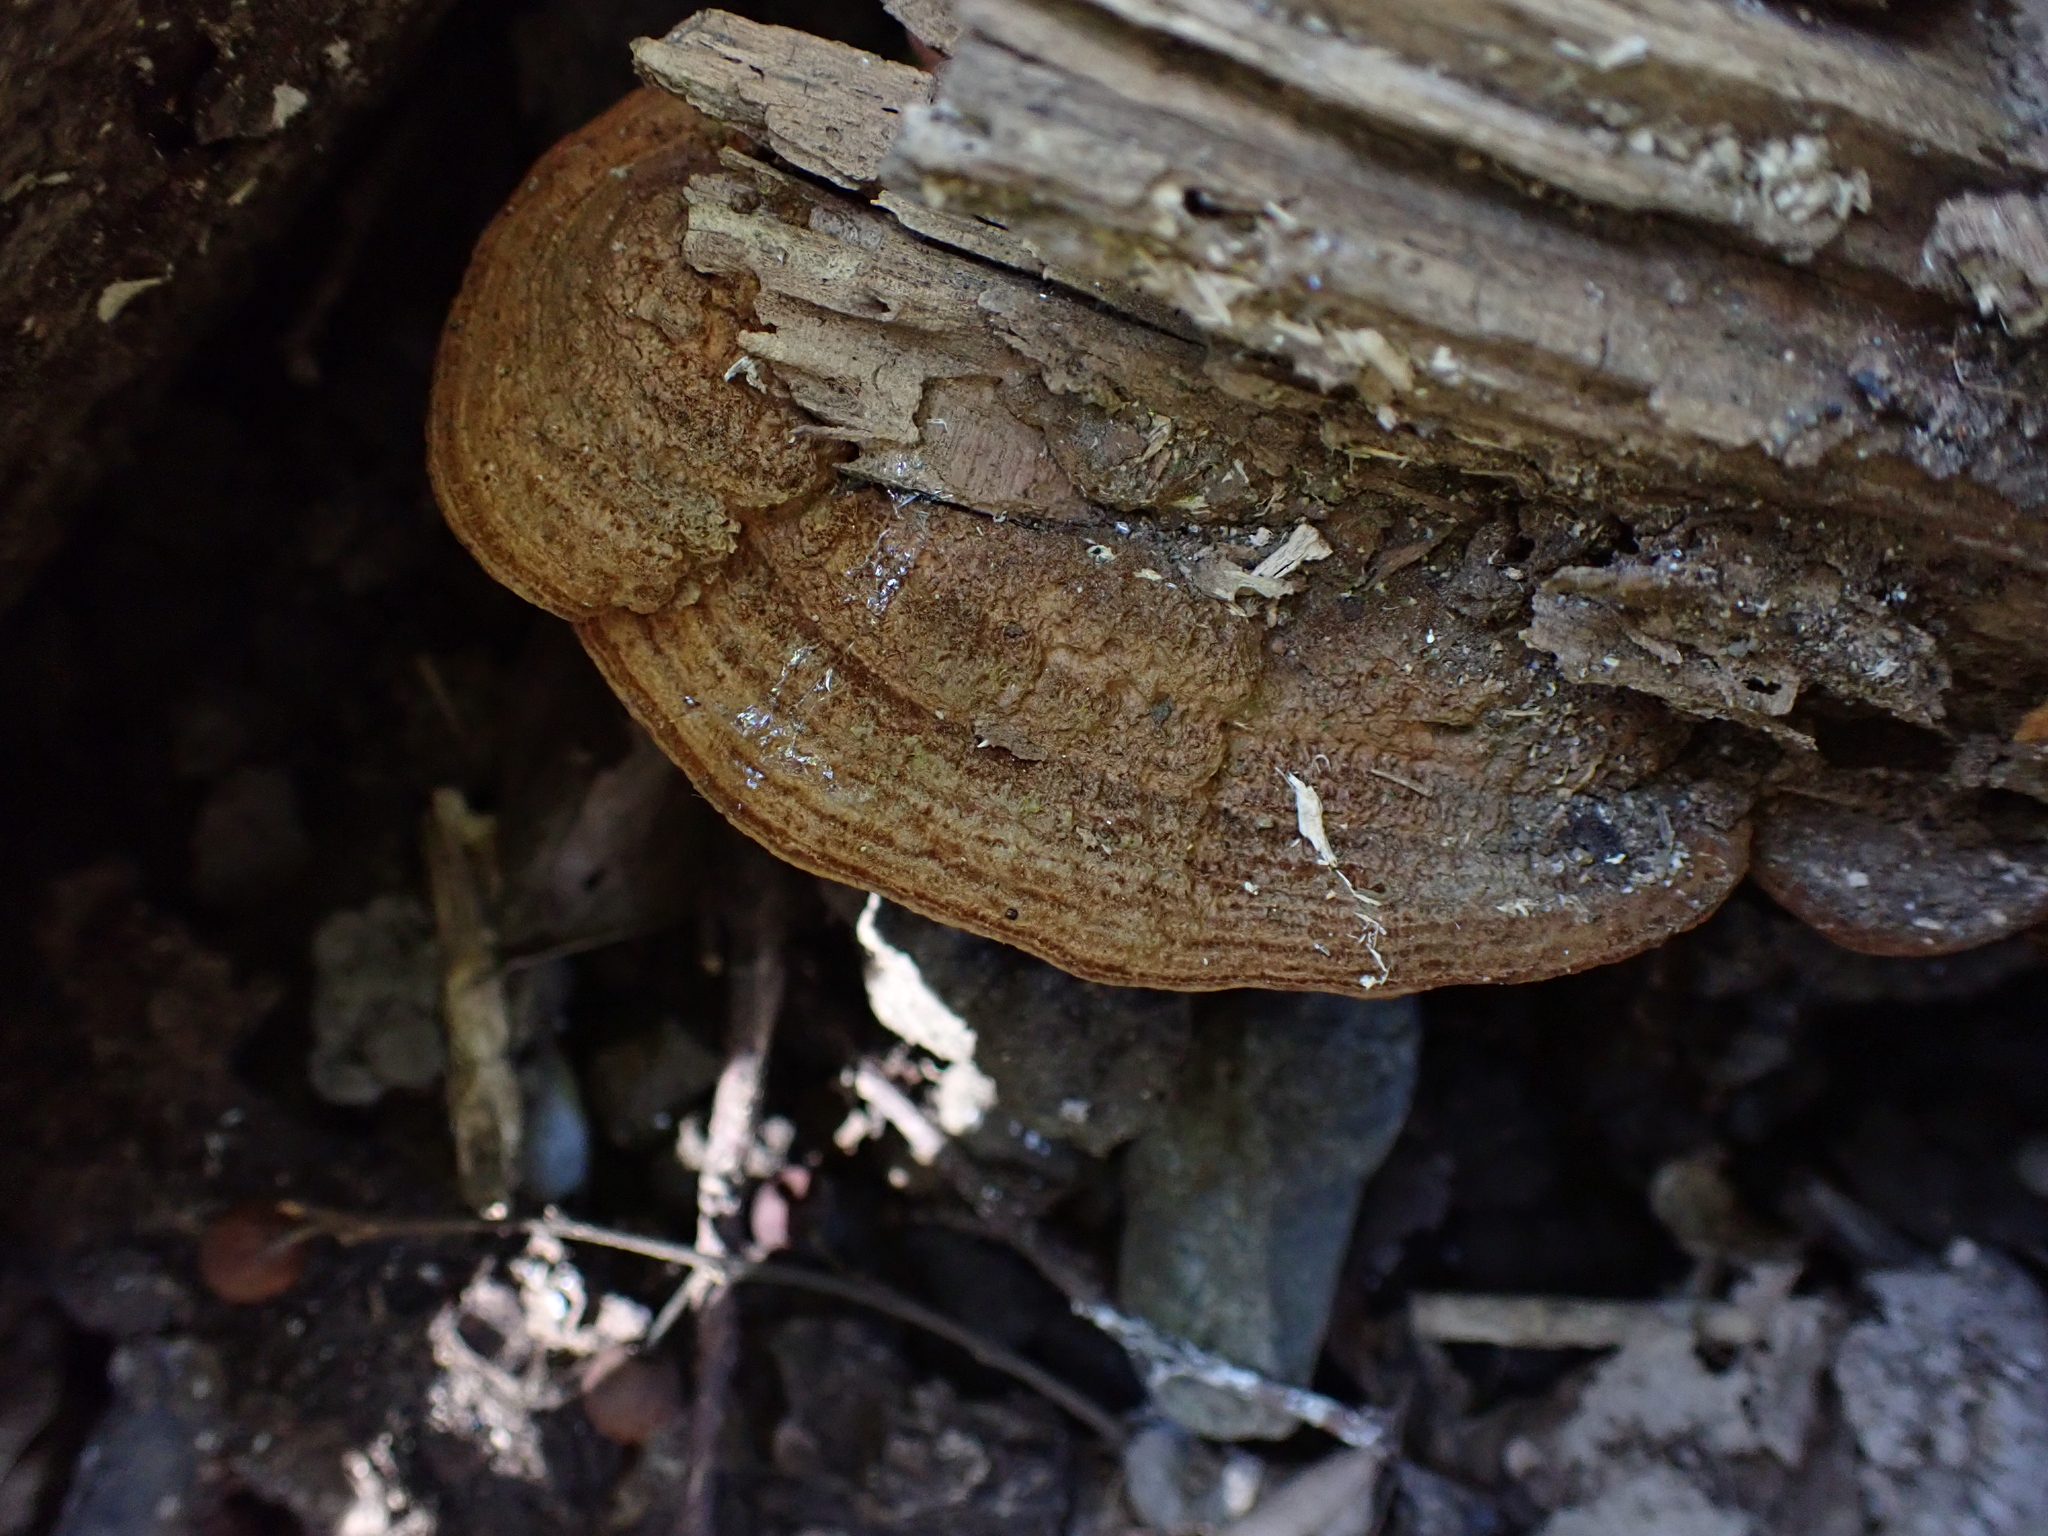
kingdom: Fungi
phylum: Basidiomycota
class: Agaricomycetes
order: Hymenochaetales
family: Hymenochaetaceae
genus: Phellinus
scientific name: Phellinus gilvus
